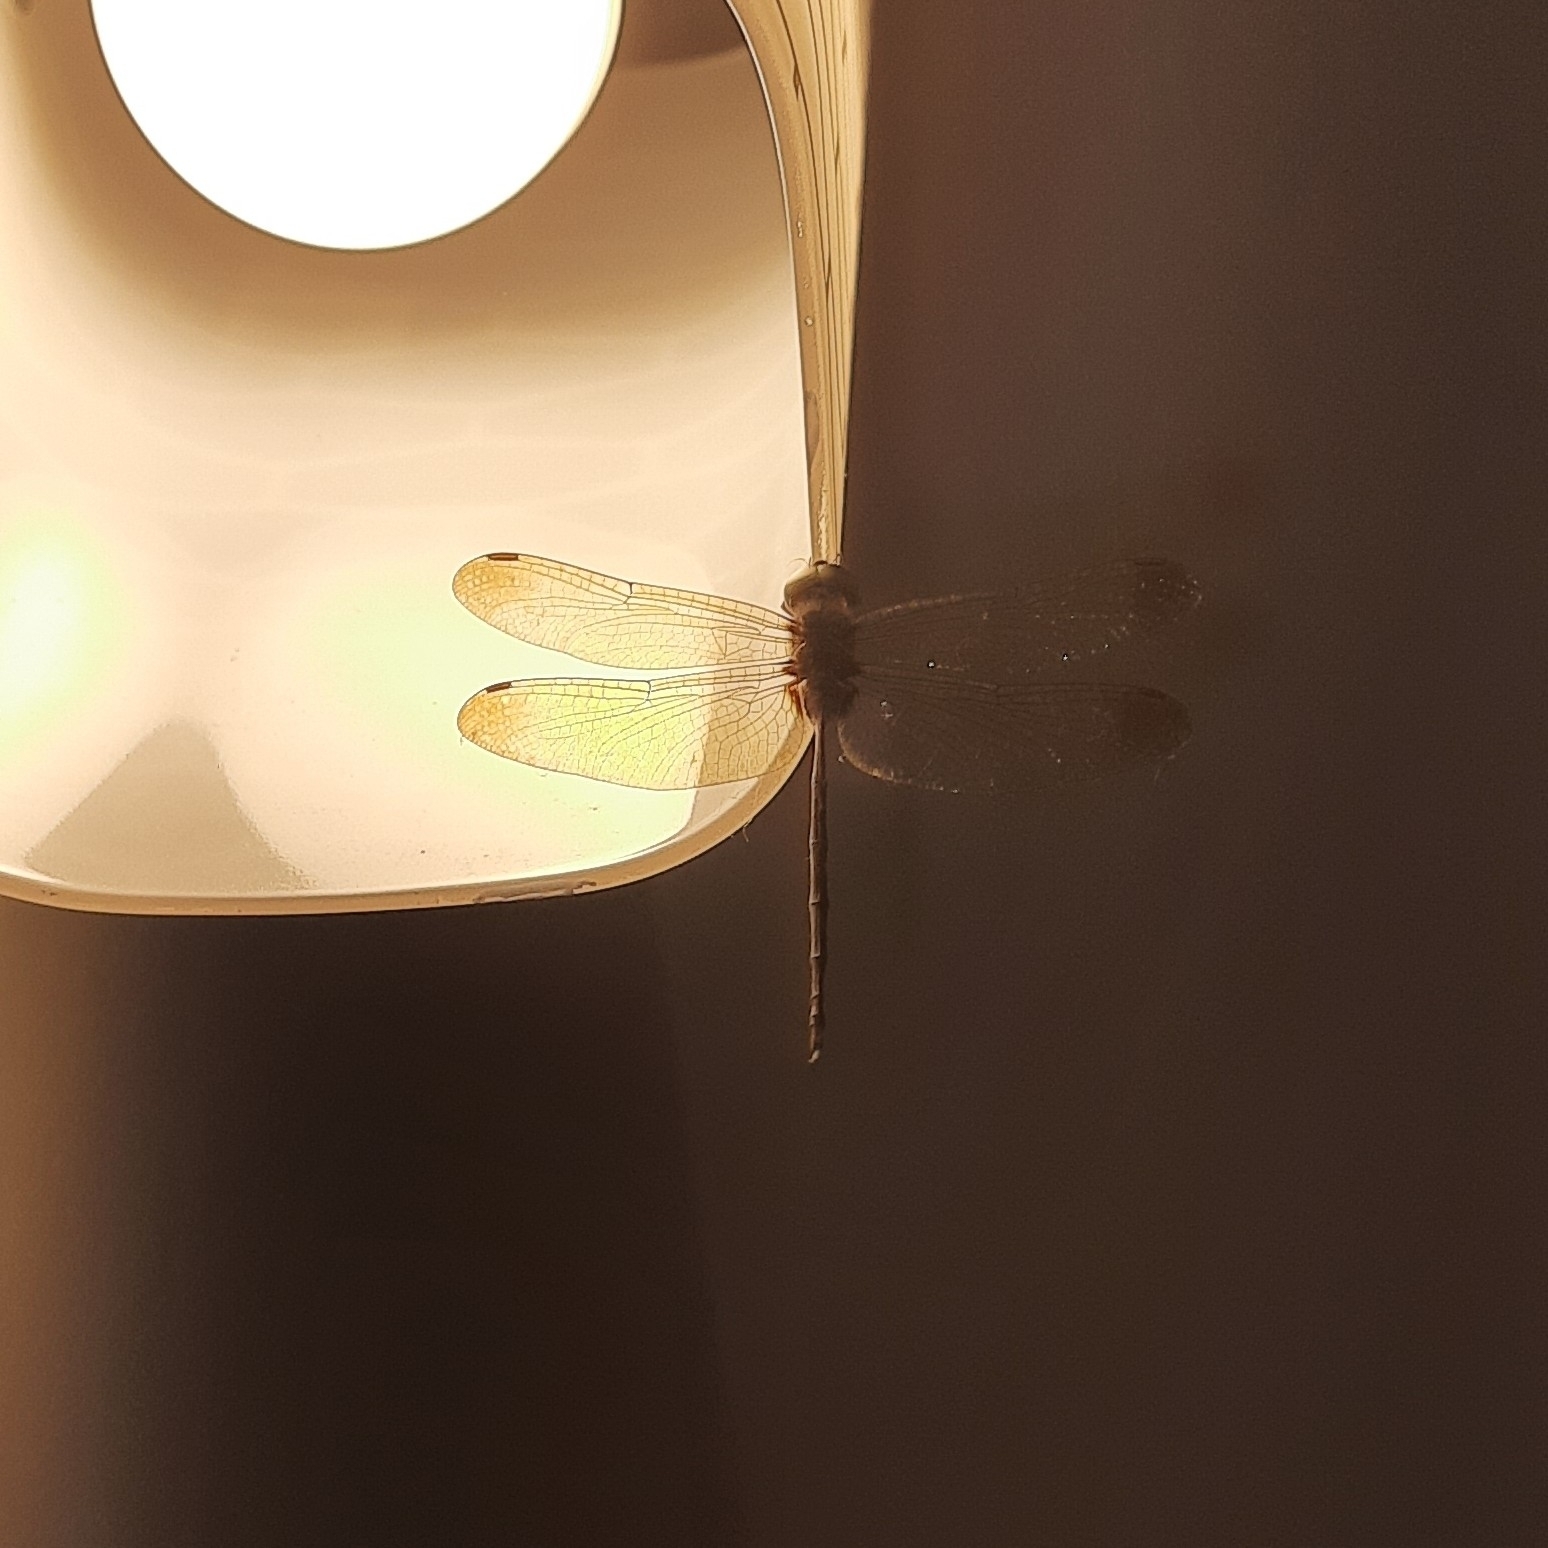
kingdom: Animalia
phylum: Arthropoda
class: Insecta
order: Odonata
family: Libellulidae
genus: Zyxomma
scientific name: Zyxomma petiolatum
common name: Dingy dusk-darter
